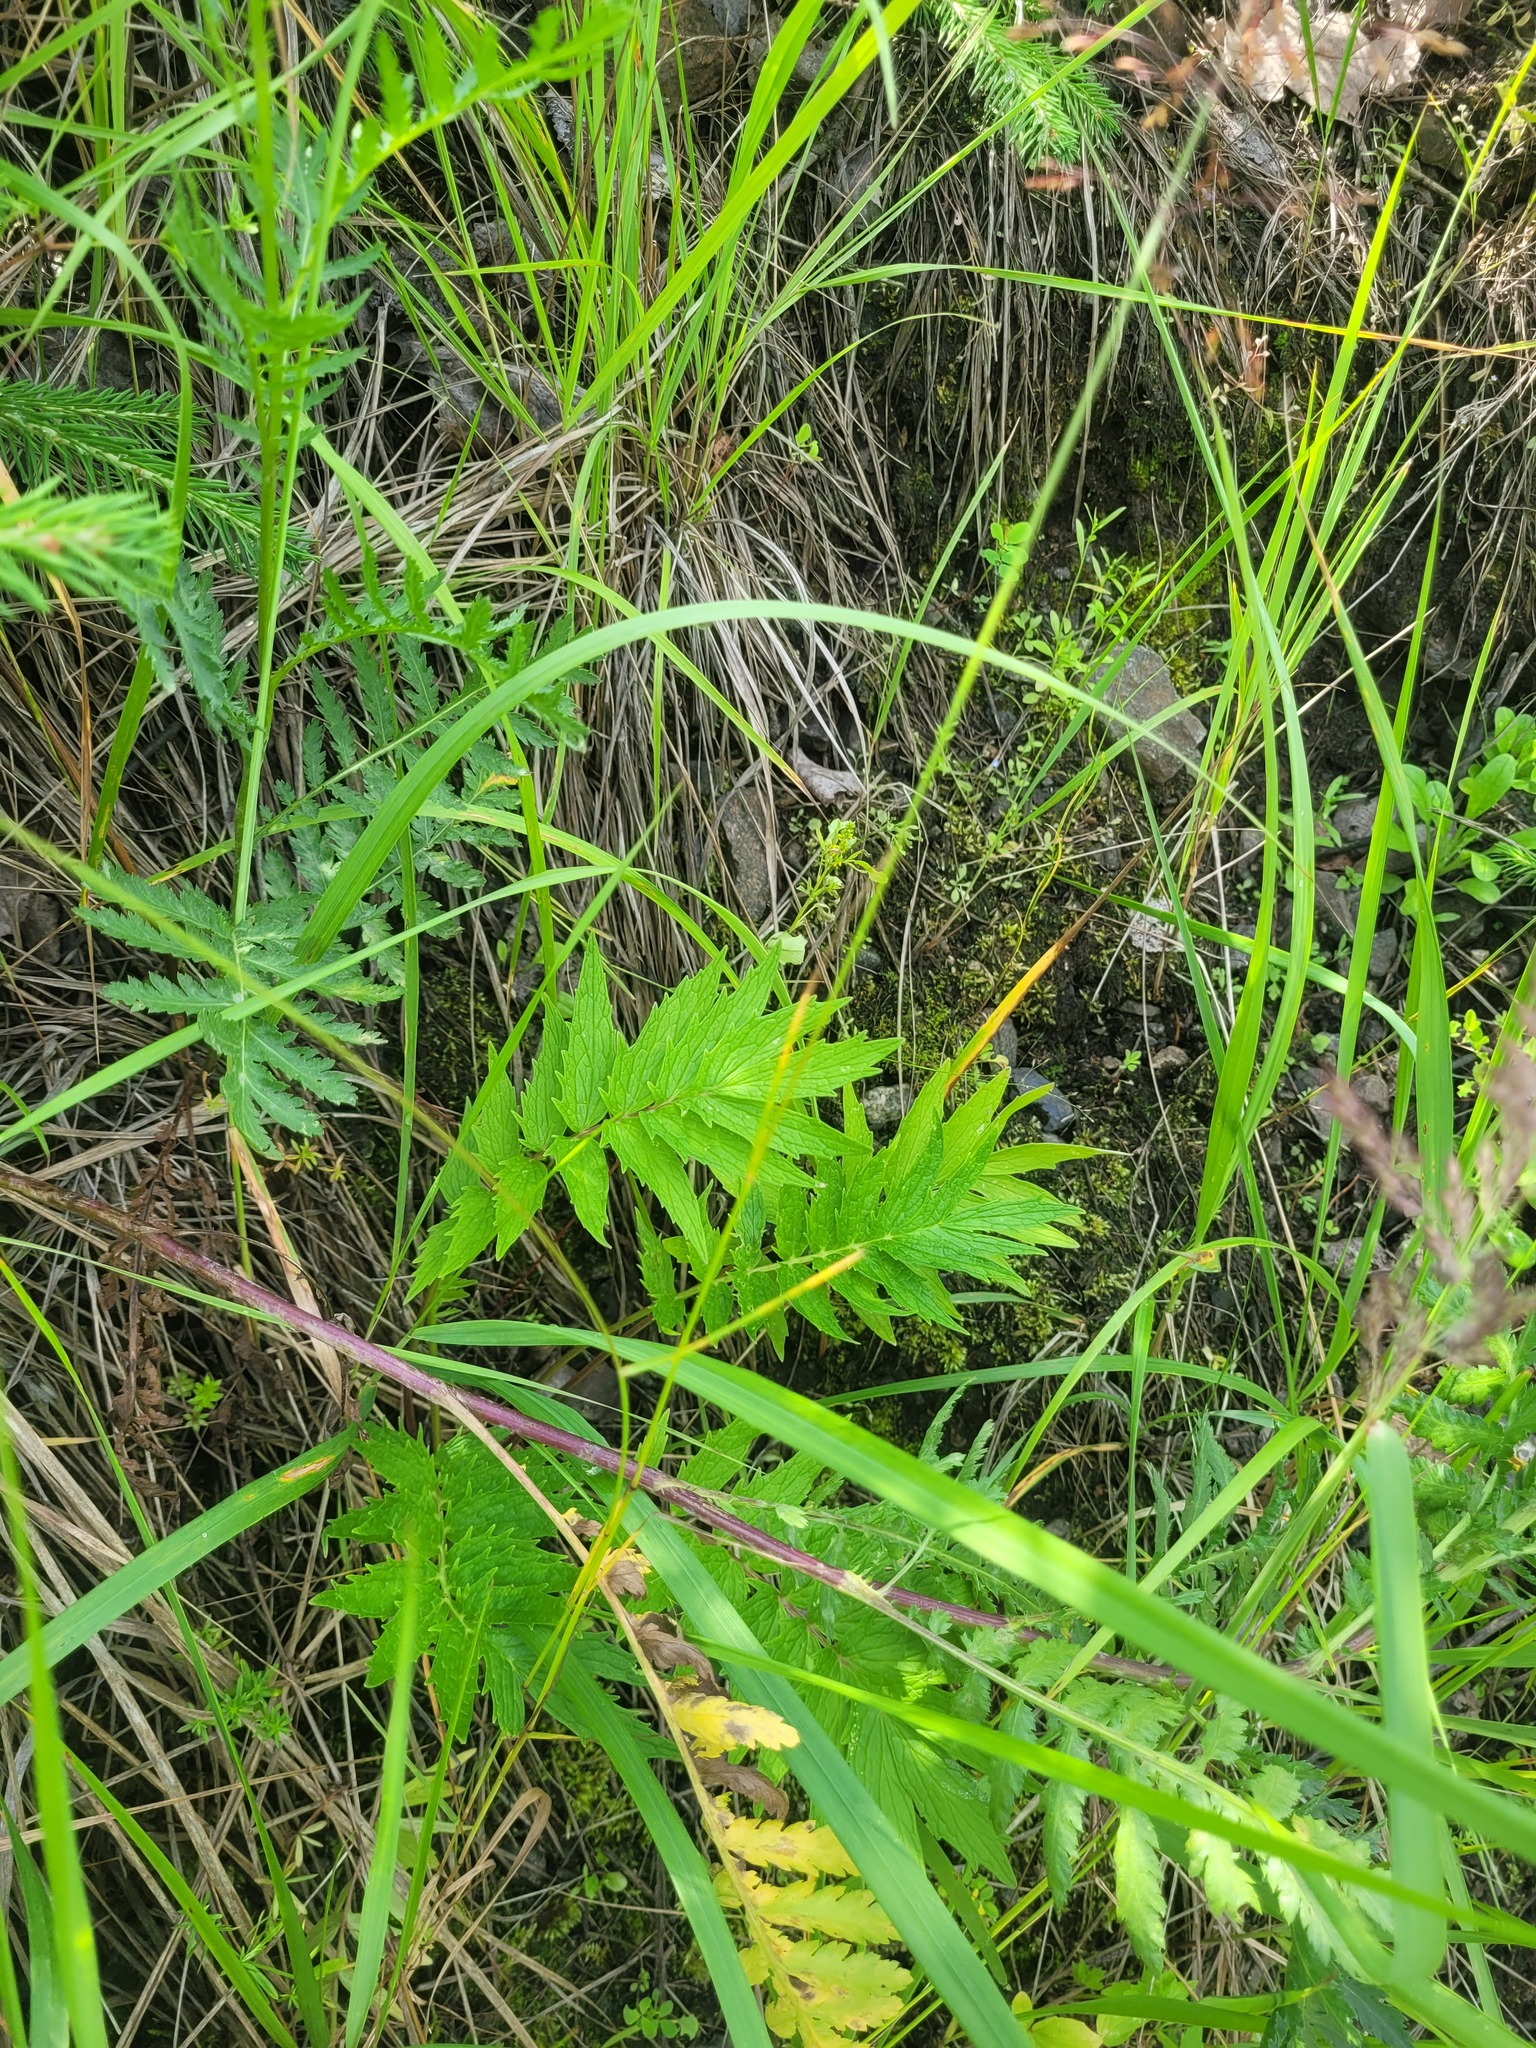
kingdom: Plantae
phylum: Tracheophyta
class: Magnoliopsida
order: Dipsacales
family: Caprifoliaceae
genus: Valeriana
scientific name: Valeriana officinalis
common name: Common valerian
